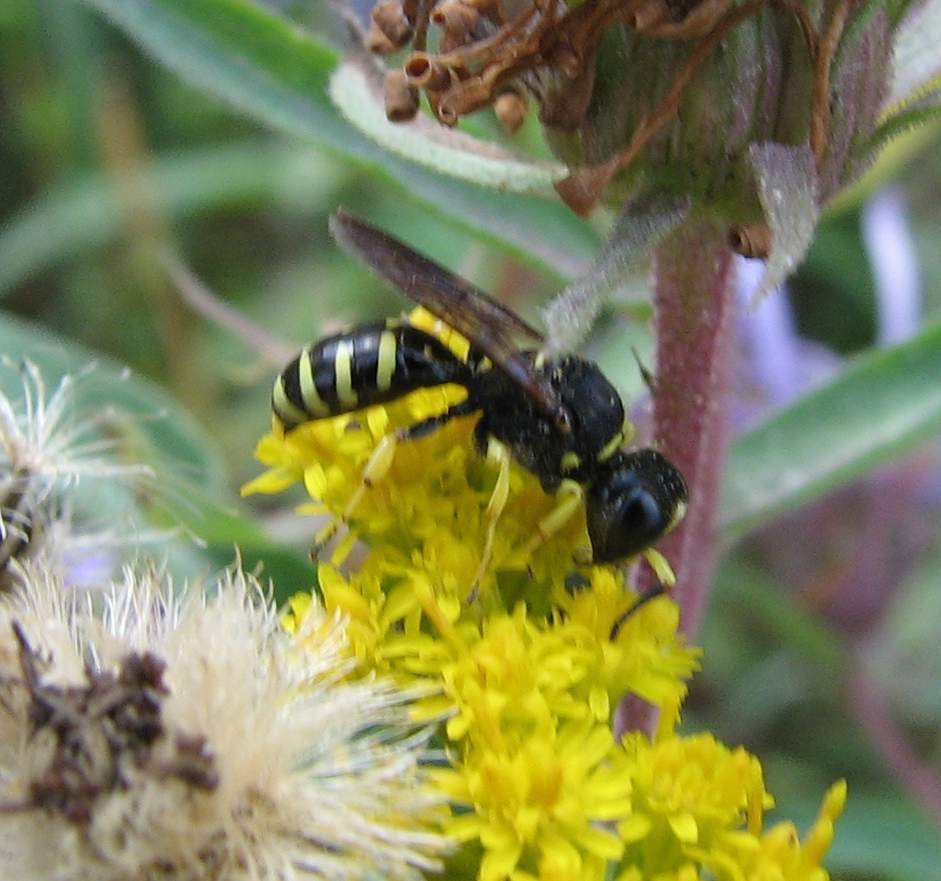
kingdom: Animalia
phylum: Arthropoda
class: Insecta
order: Hymenoptera
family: Crabronidae
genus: Ectemnius
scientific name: Ectemnius maculosus
